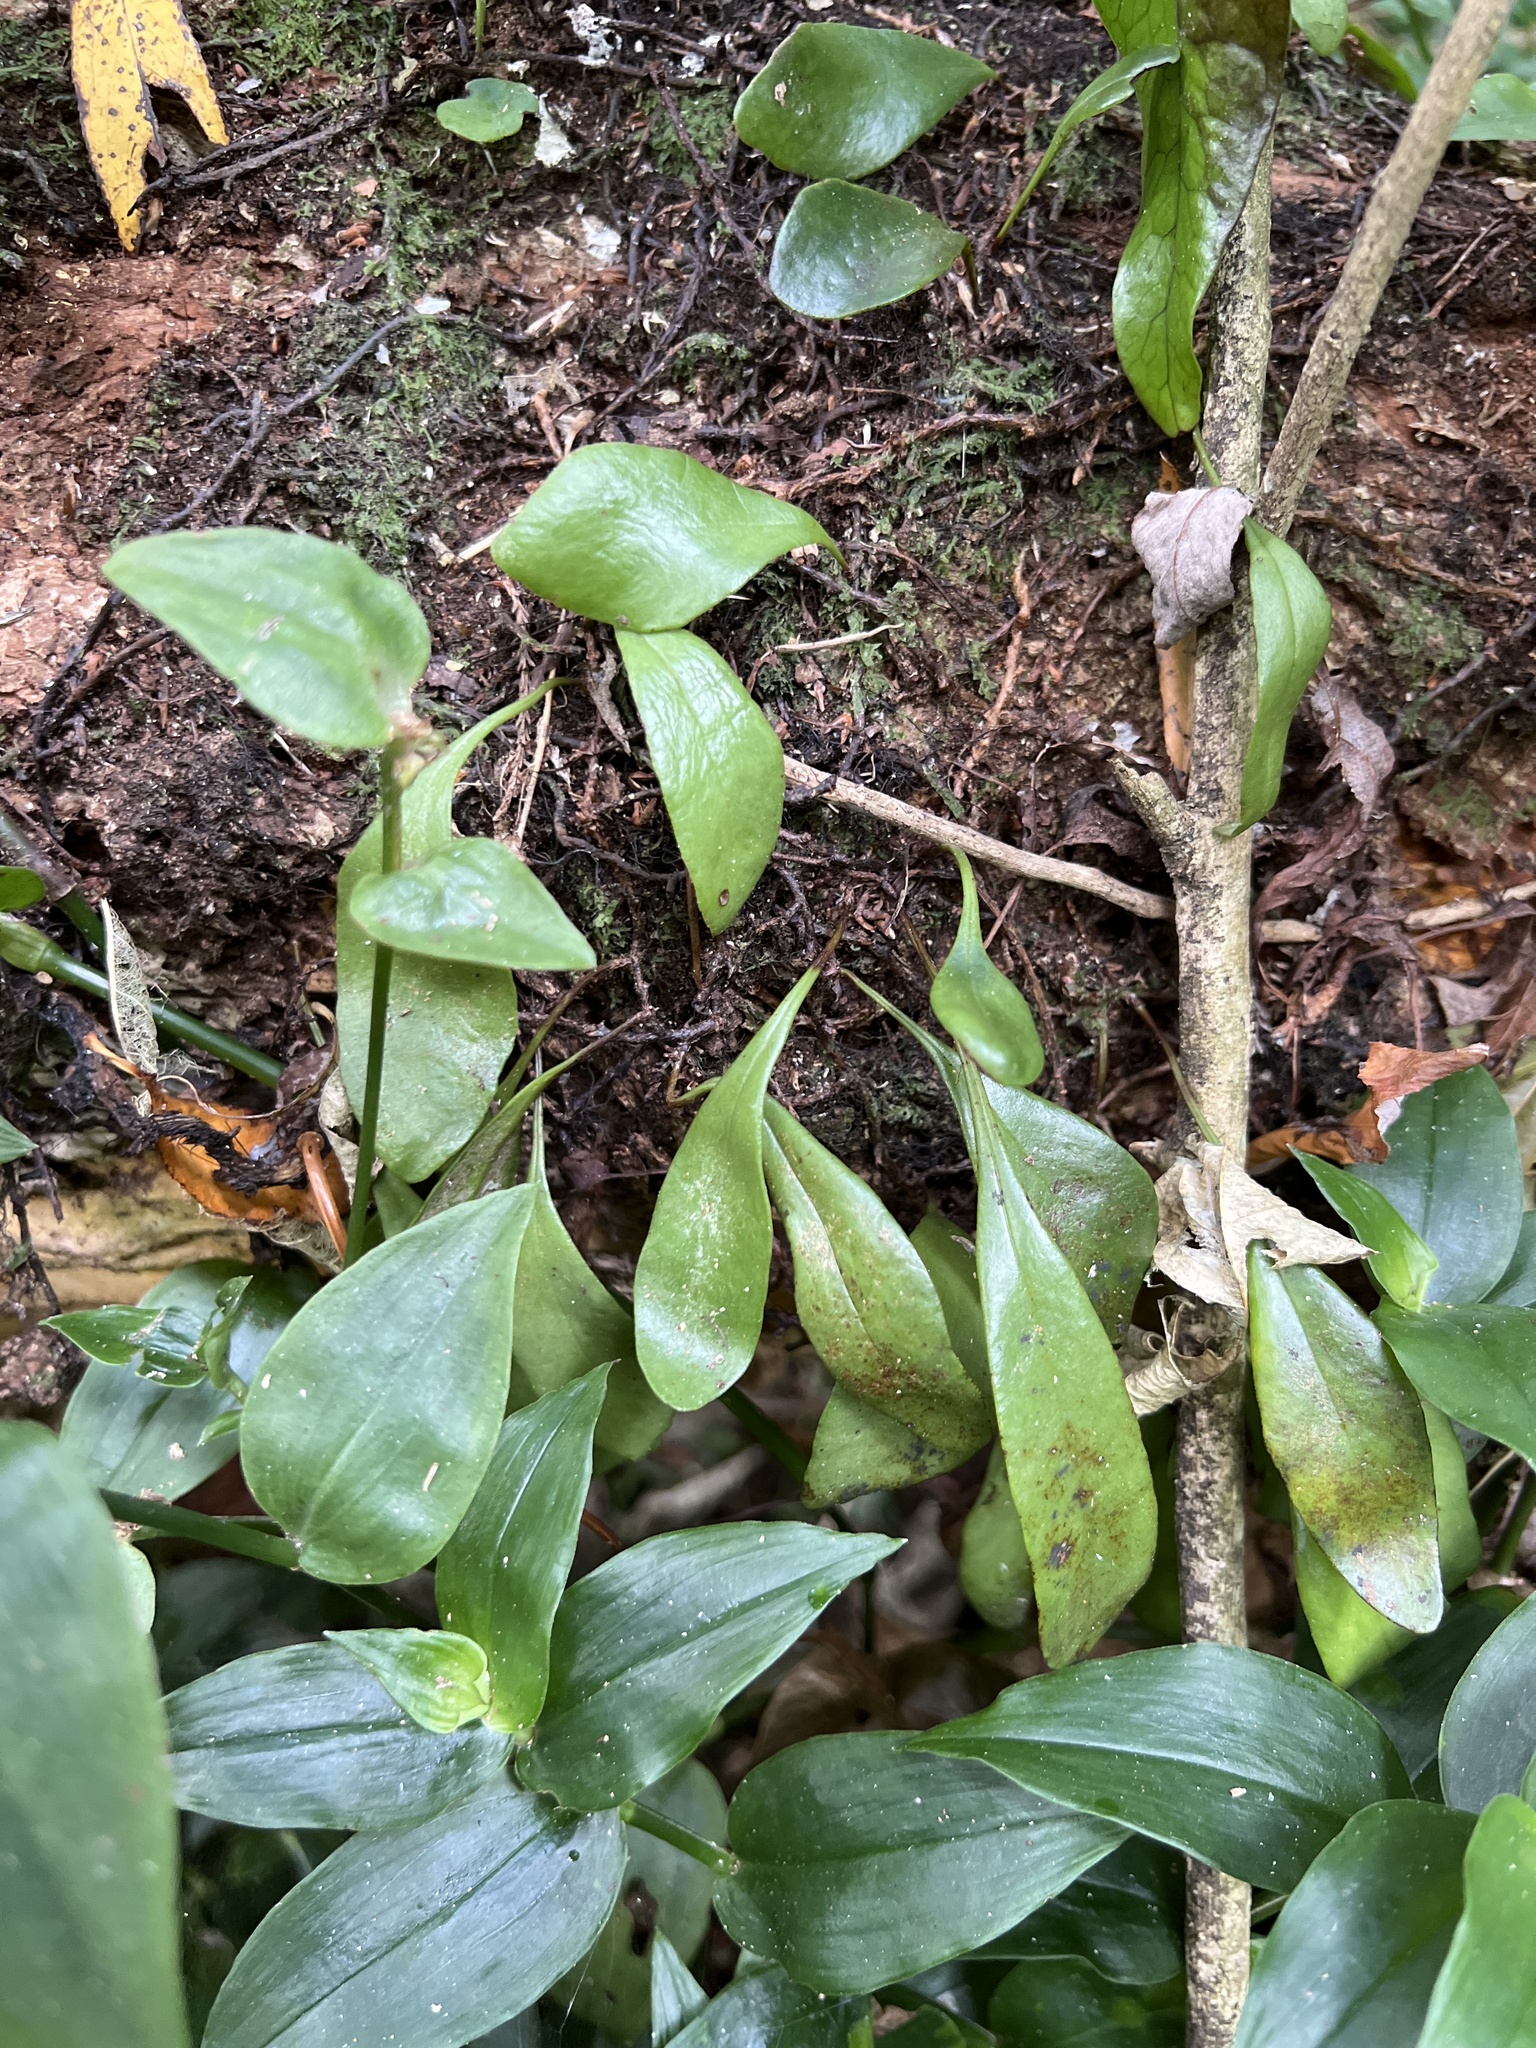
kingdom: Plantae
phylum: Tracheophyta
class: Polypodiopsida
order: Polypodiales
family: Polypodiaceae
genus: Pyrrosia
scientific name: Pyrrosia eleagnifolia
